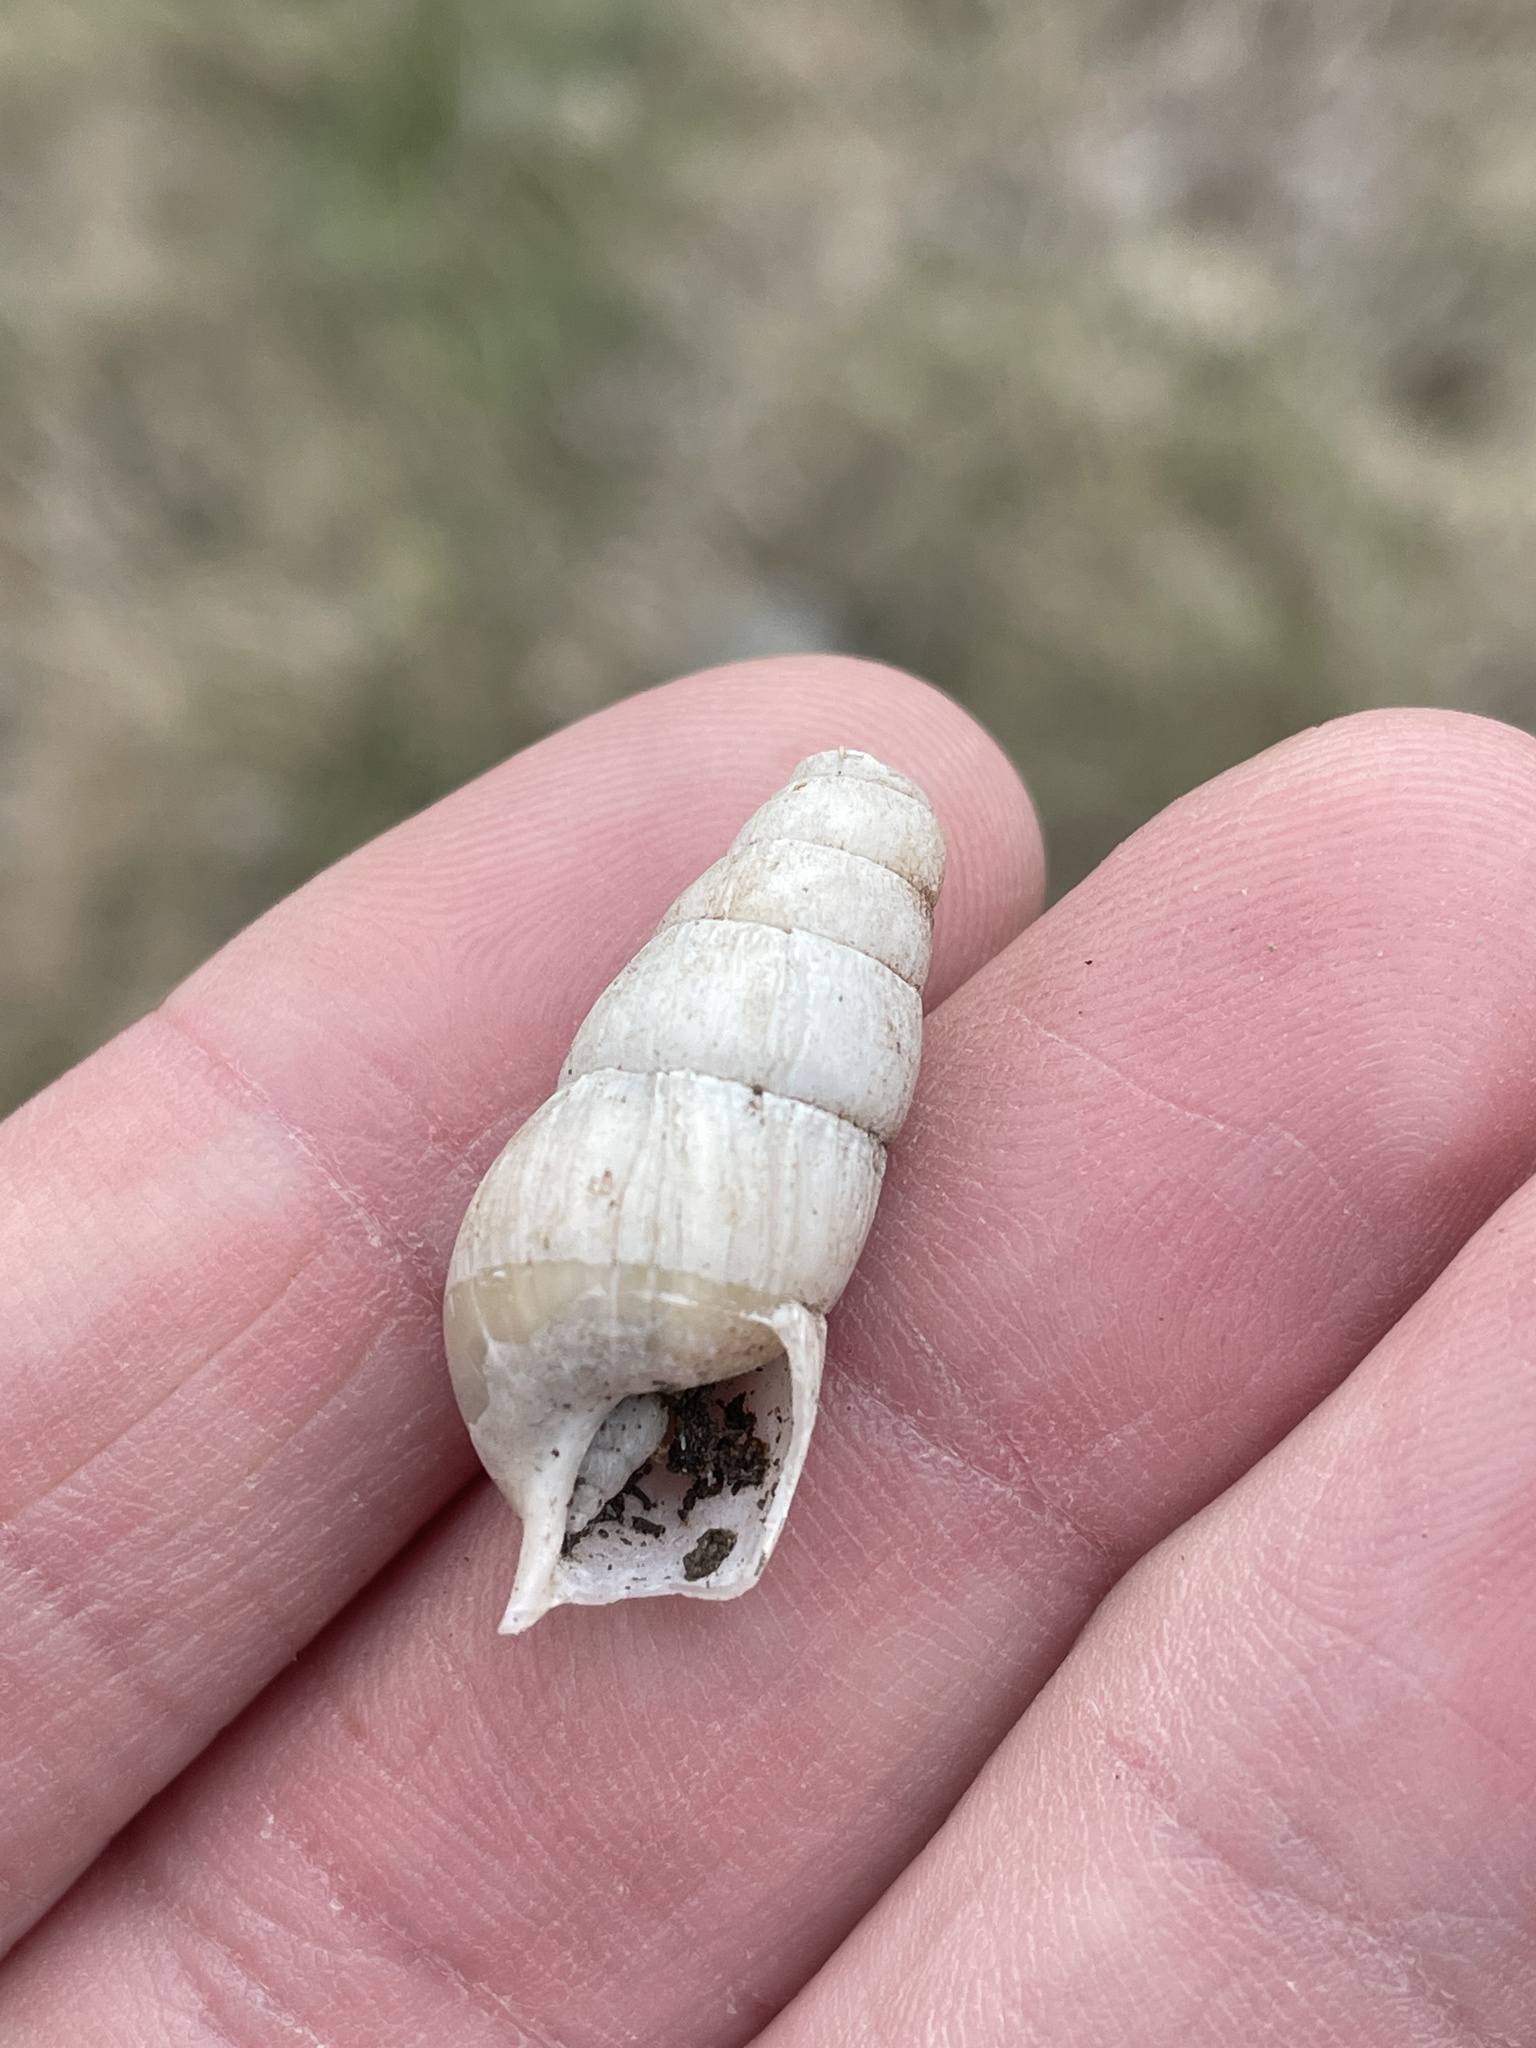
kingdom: Animalia
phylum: Mollusca
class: Gastropoda
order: Stylommatophora
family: Achatinidae
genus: Rumina
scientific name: Rumina decollata
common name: Decollate snail
